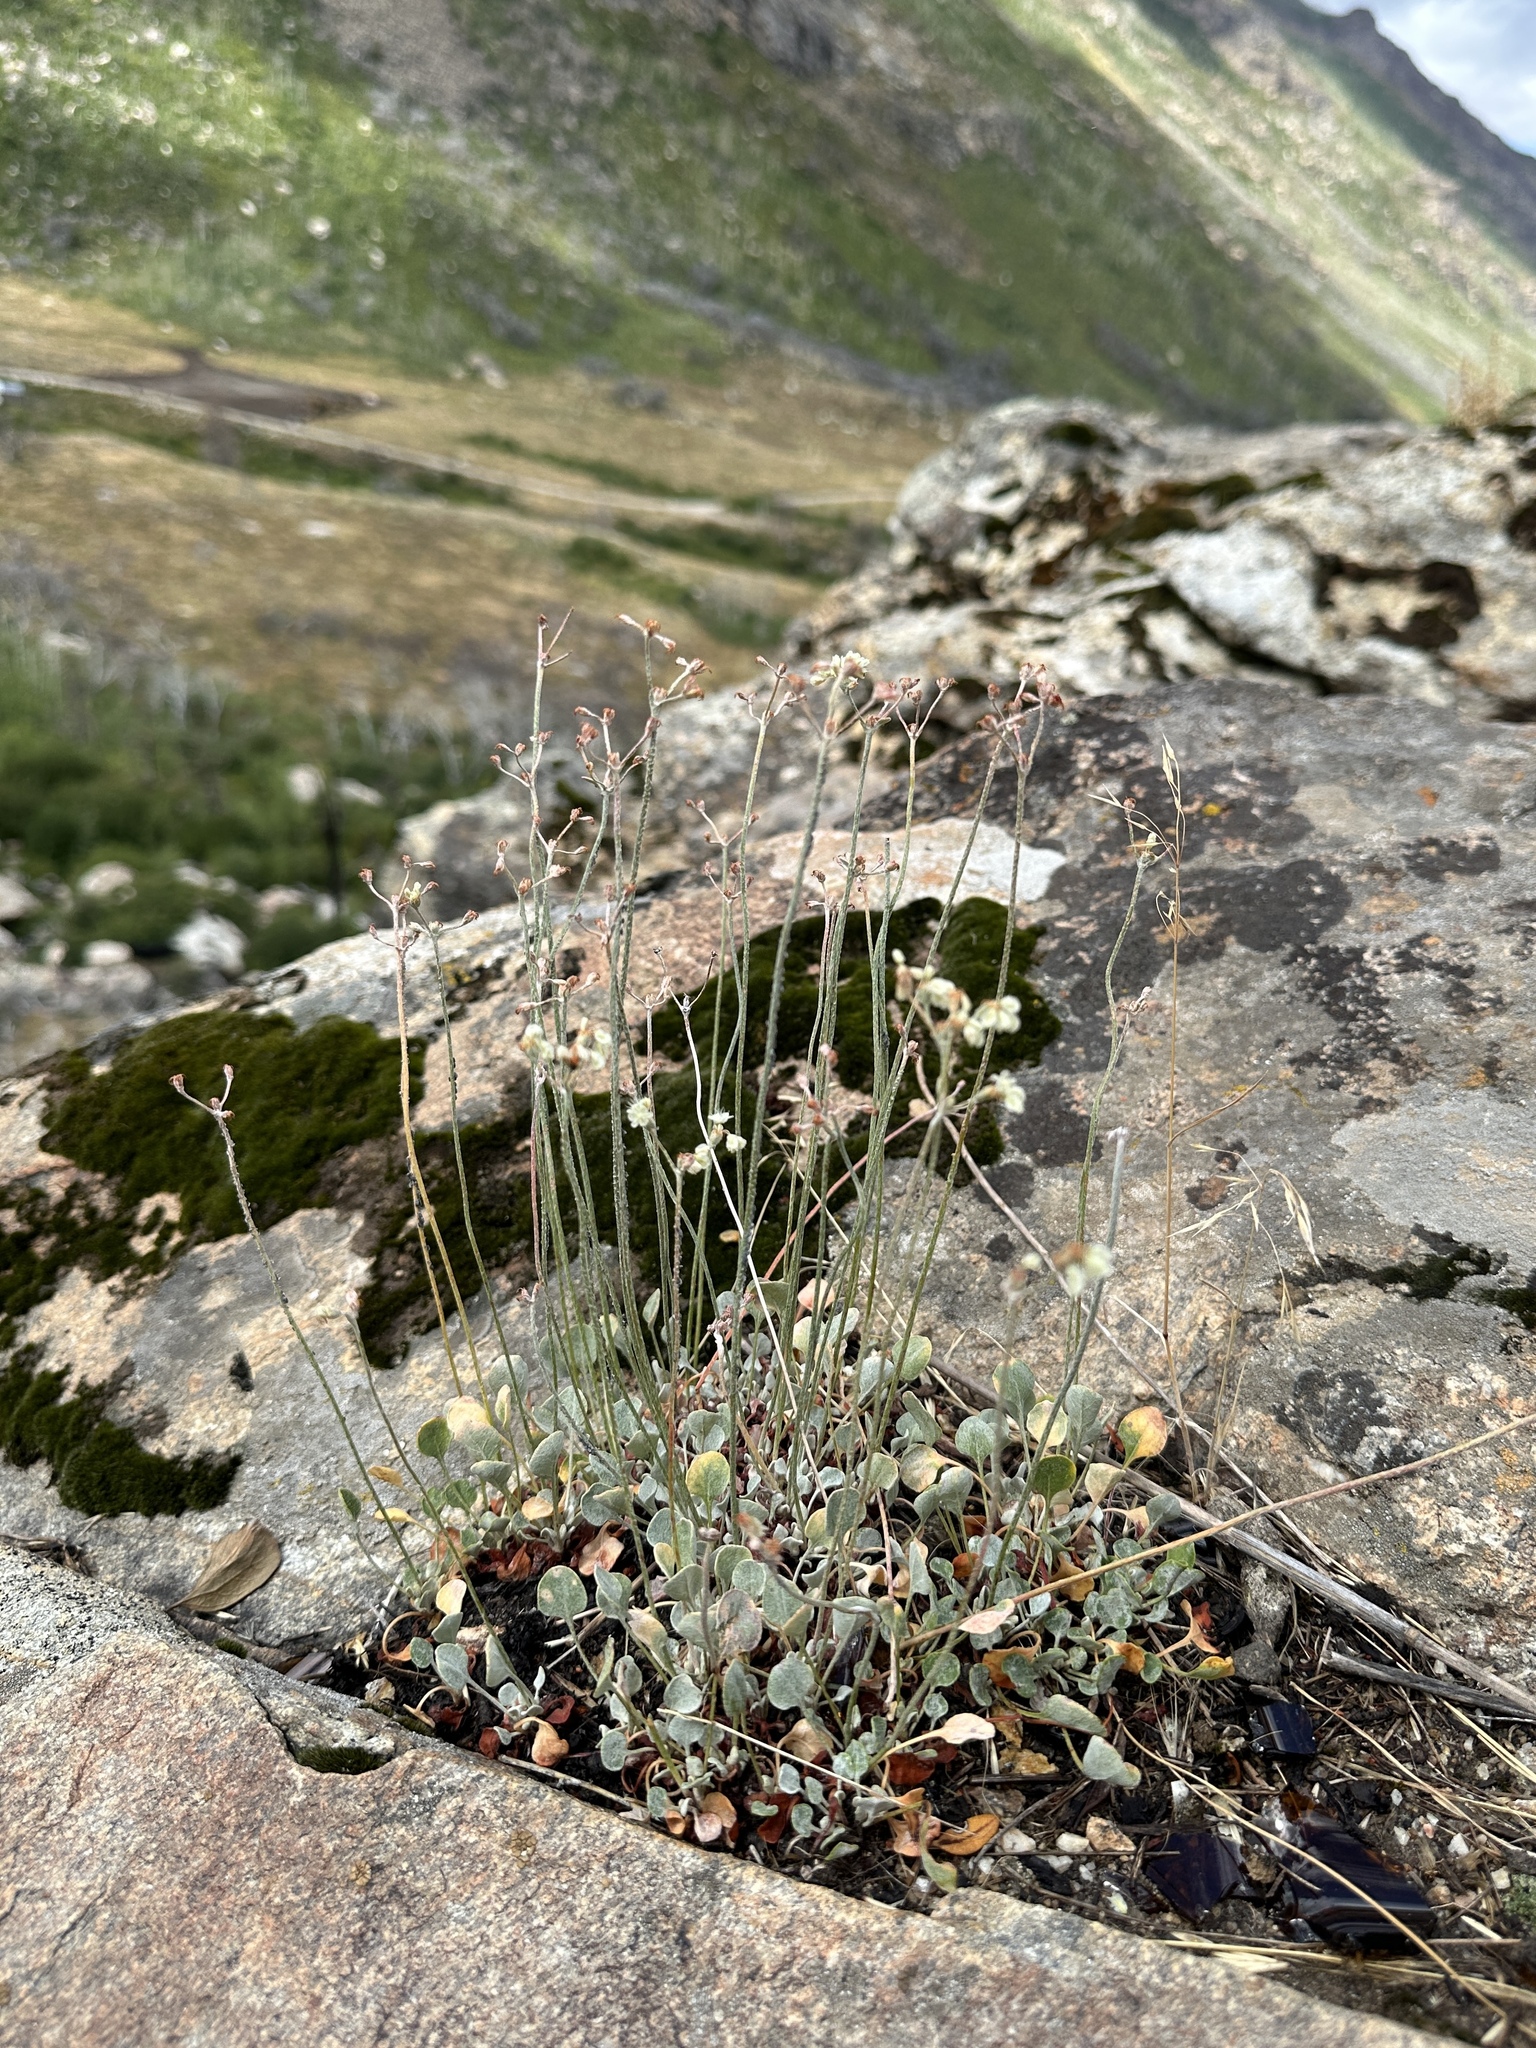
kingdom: Plantae
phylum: Tracheophyta
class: Magnoliopsida
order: Caryophyllales
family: Polygonaceae
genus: Eriogonum
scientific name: Eriogonum strictum
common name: Blue mountain buckwheat
